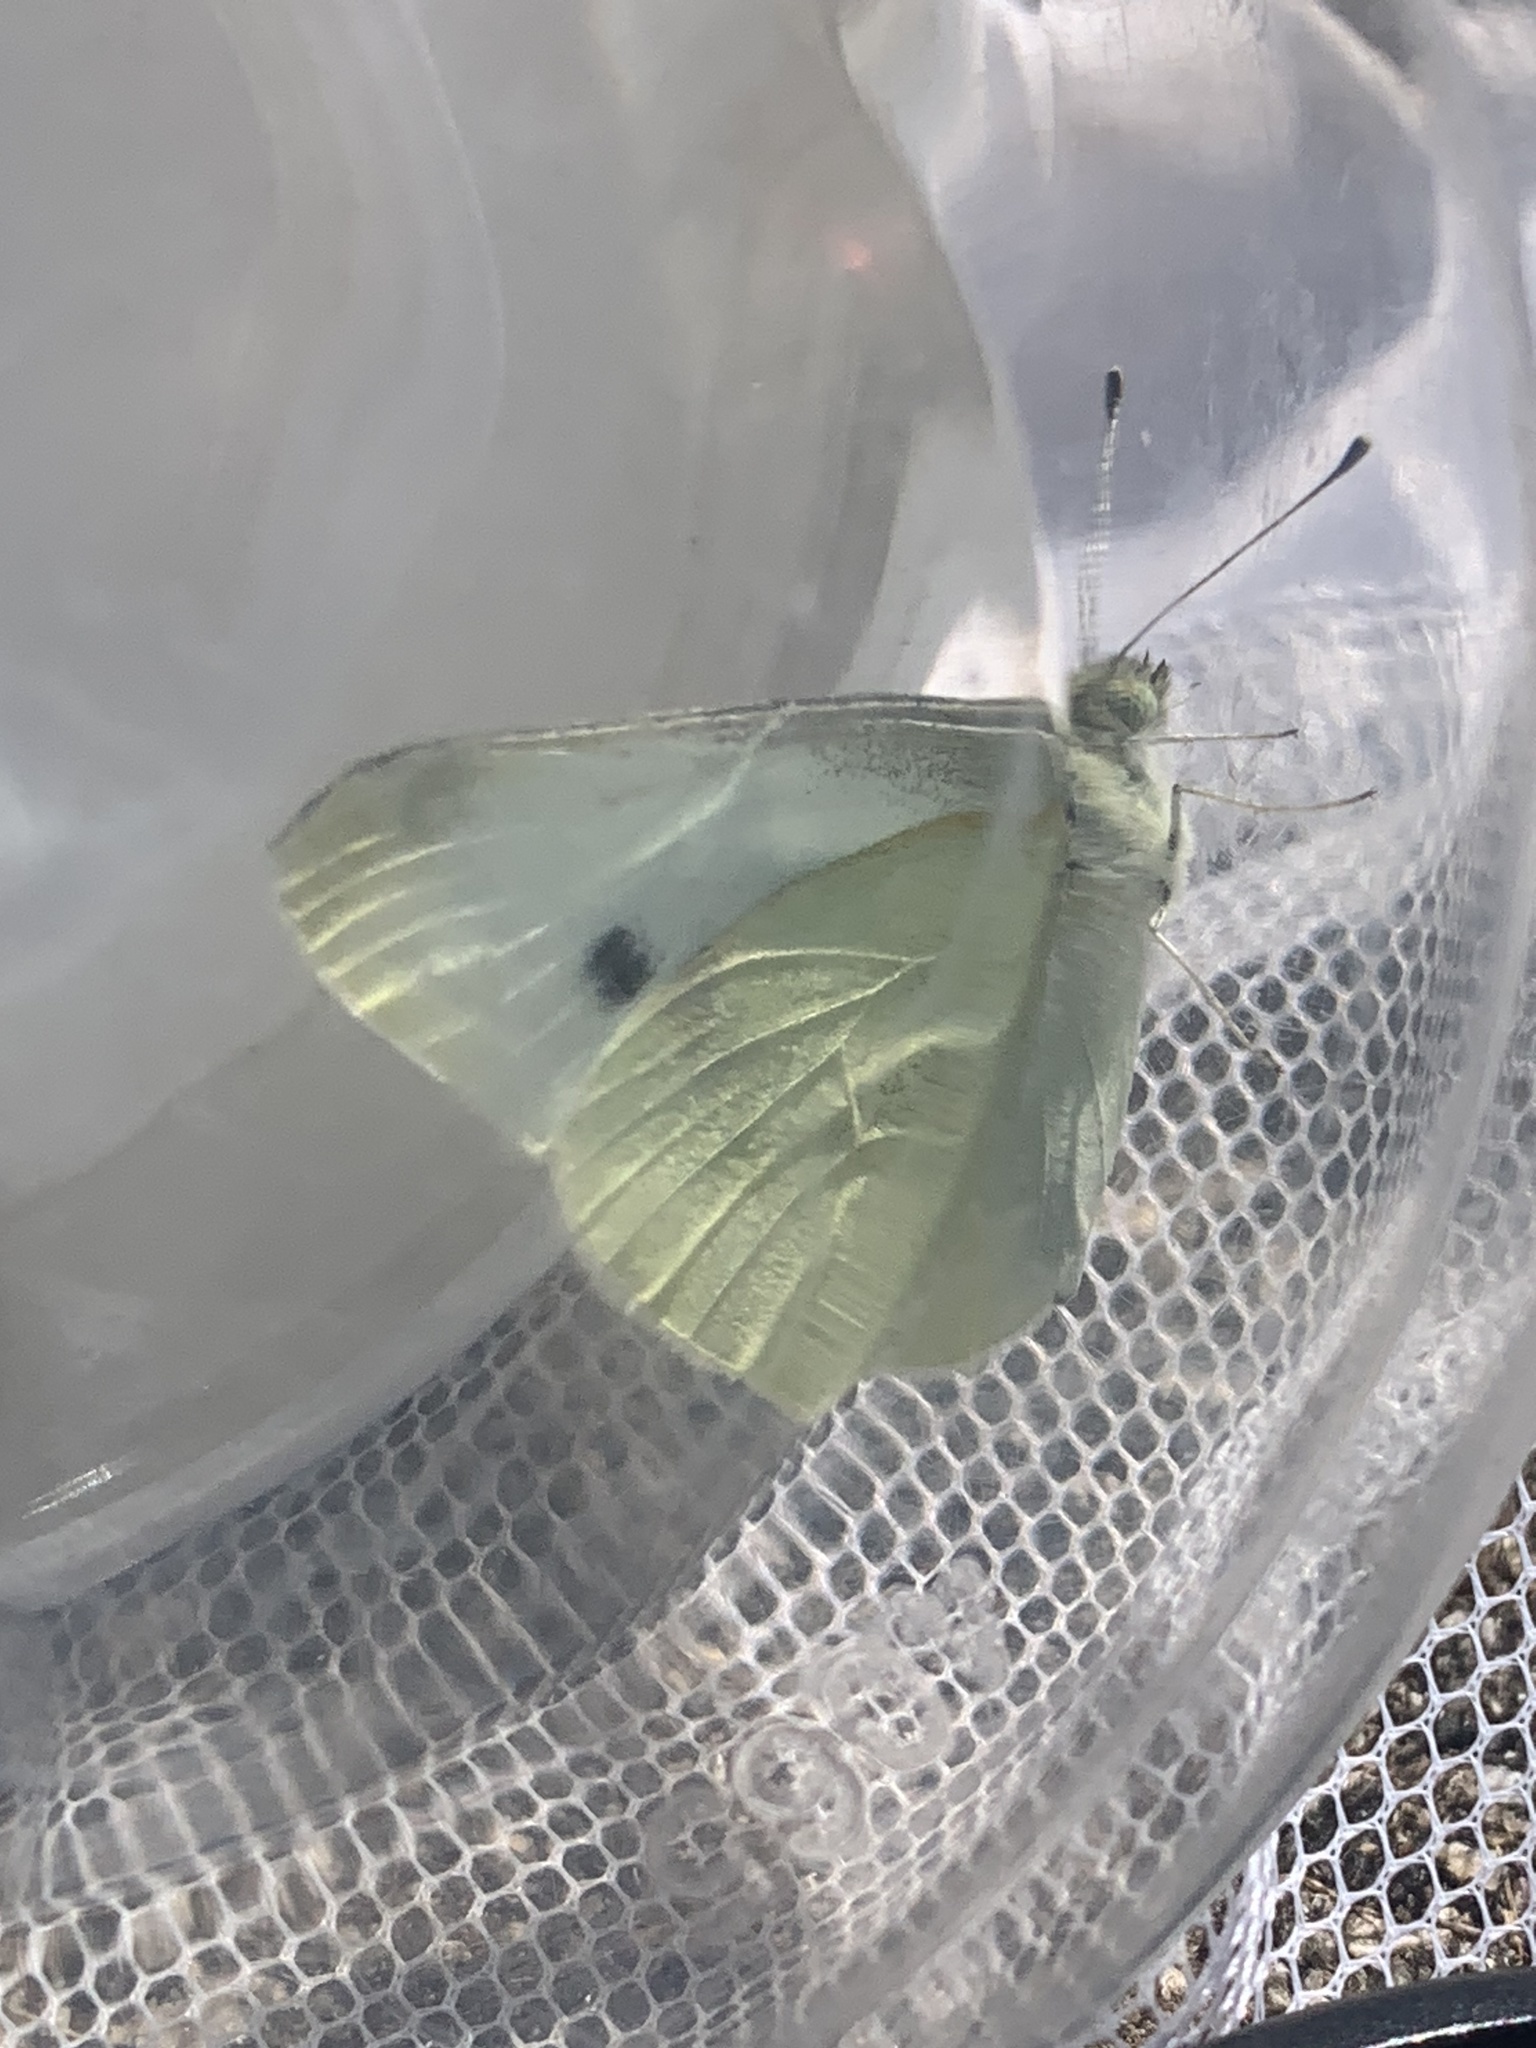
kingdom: Animalia
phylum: Arthropoda
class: Insecta
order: Lepidoptera
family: Pieridae
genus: Pieris
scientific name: Pieris rapae
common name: Small white
